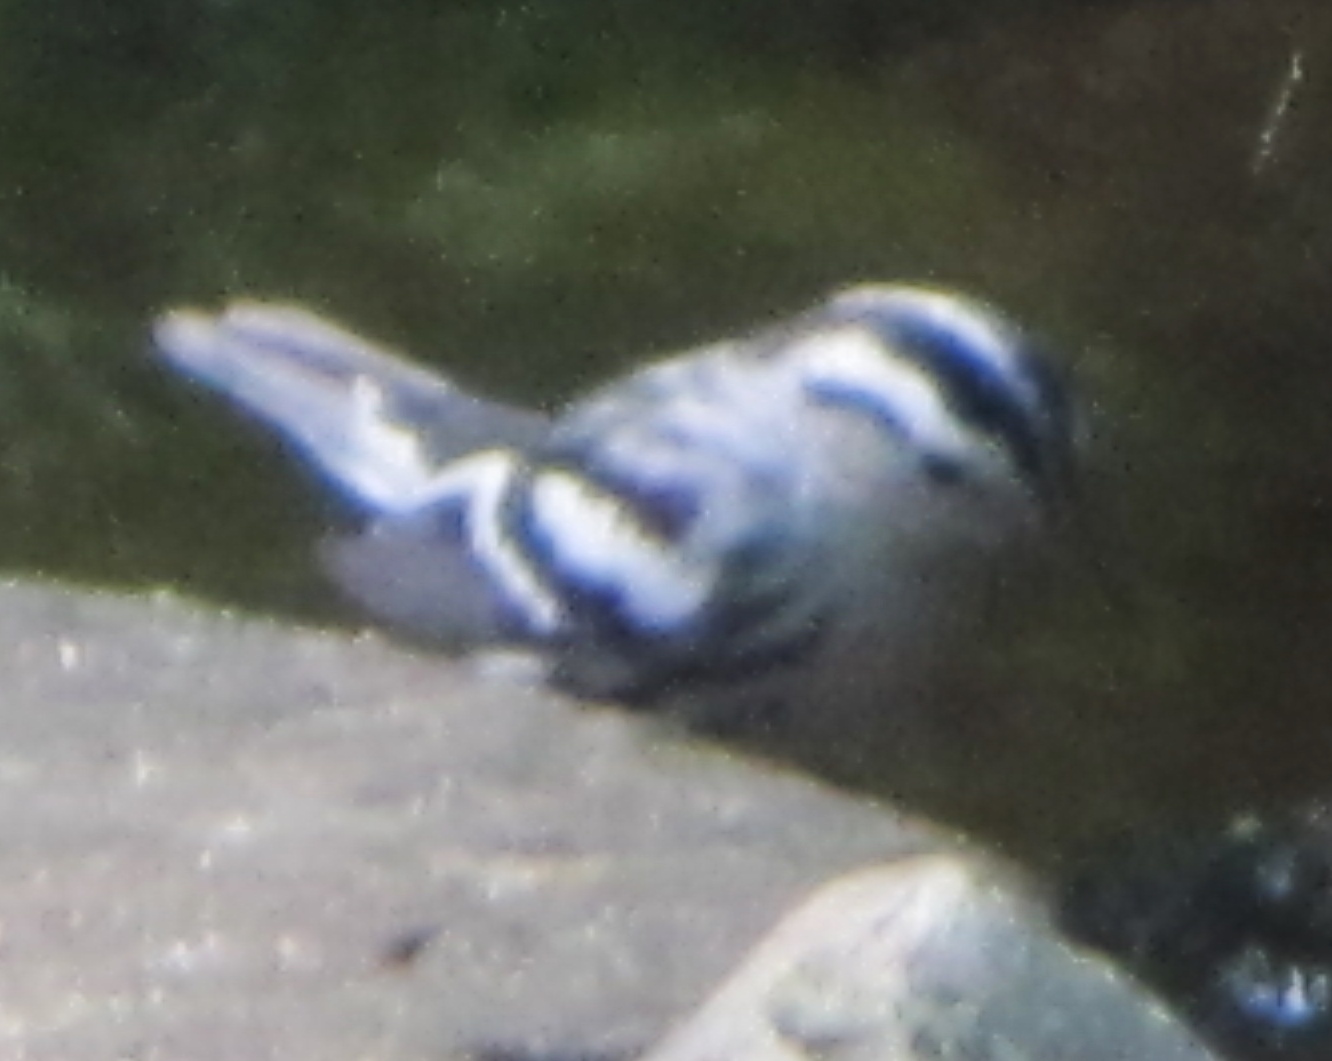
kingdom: Animalia
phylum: Chordata
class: Aves
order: Passeriformes
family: Parulidae
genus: Mniotilta
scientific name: Mniotilta varia
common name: Black-and-white warbler
